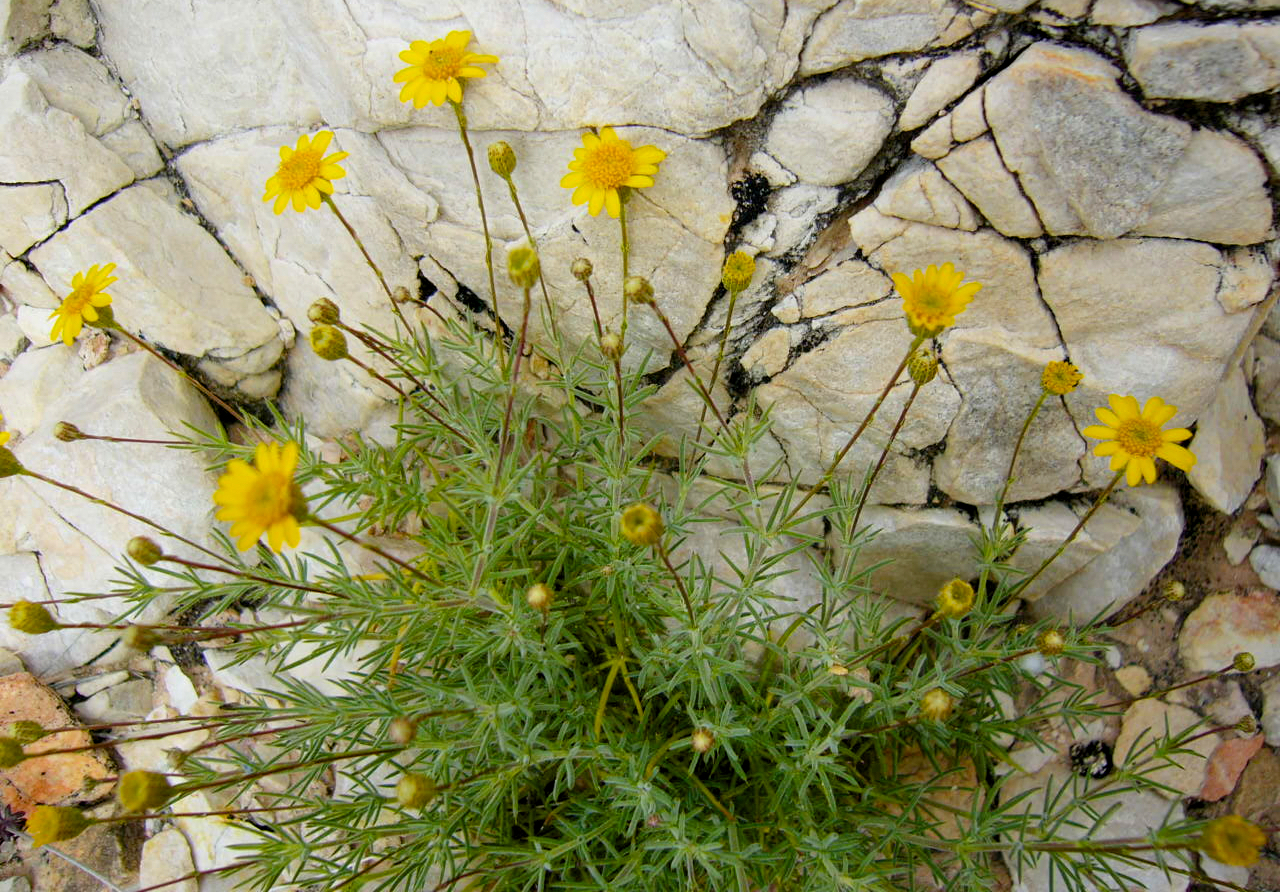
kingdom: Plantae
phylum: Tracheophyta
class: Magnoliopsida
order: Asterales
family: Asteraceae
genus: Thymophylla
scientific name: Thymophylla pentachaeta
